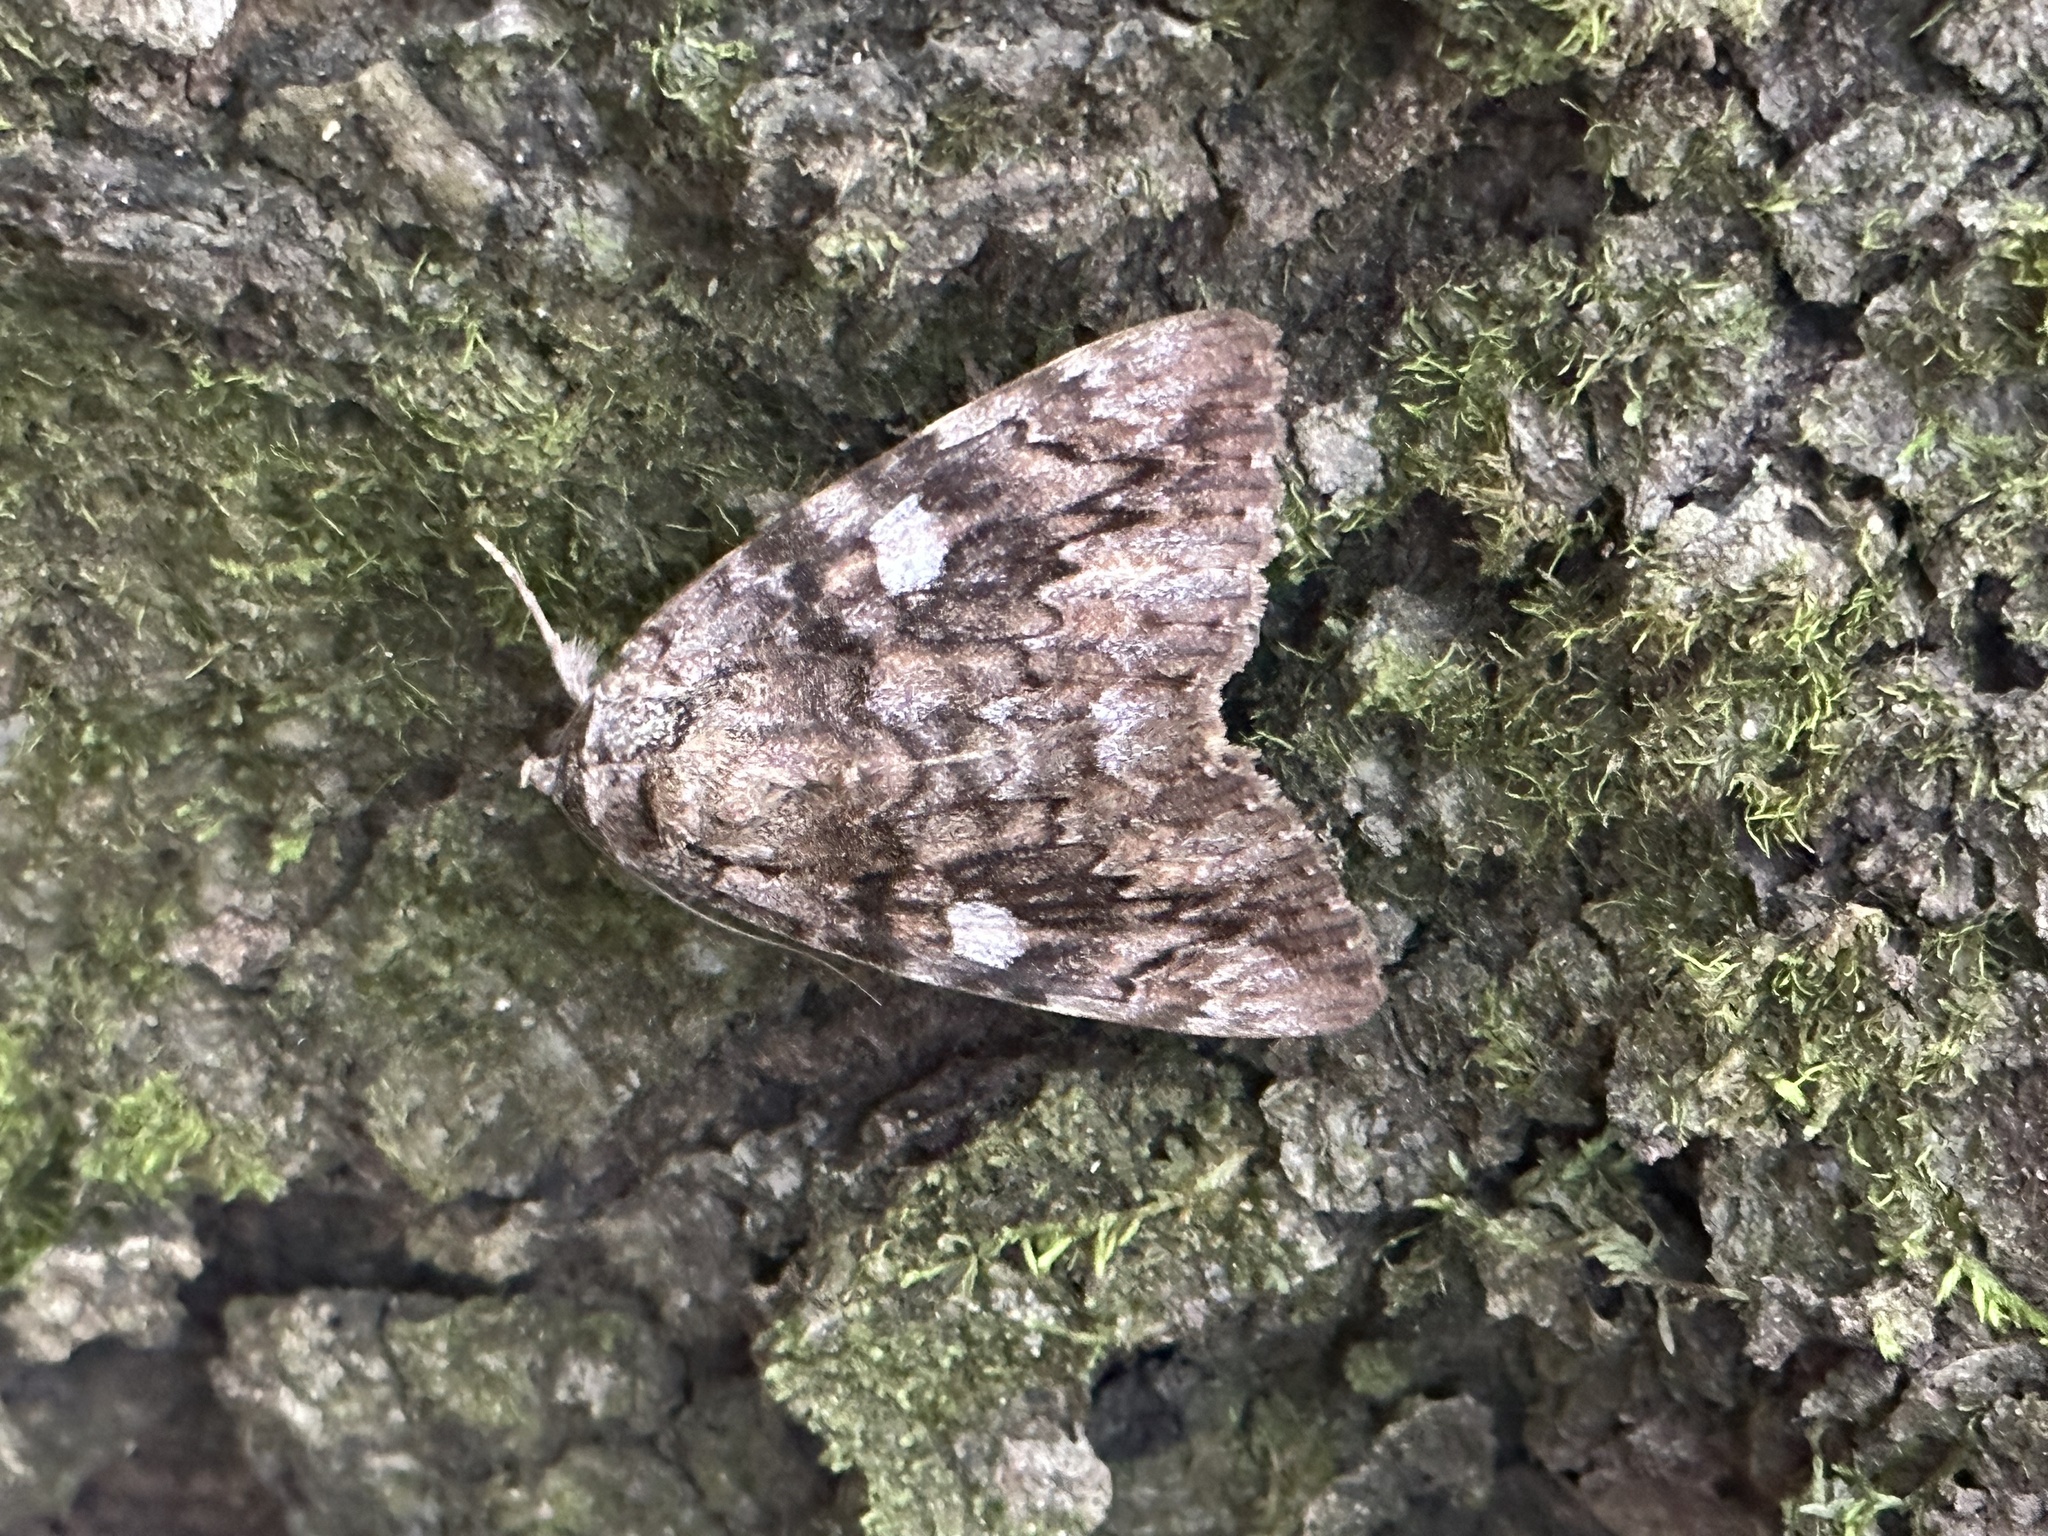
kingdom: Animalia
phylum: Arthropoda
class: Insecta
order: Lepidoptera
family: Erebidae
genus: Catocala
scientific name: Catocala ilia
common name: Ilia underwing
